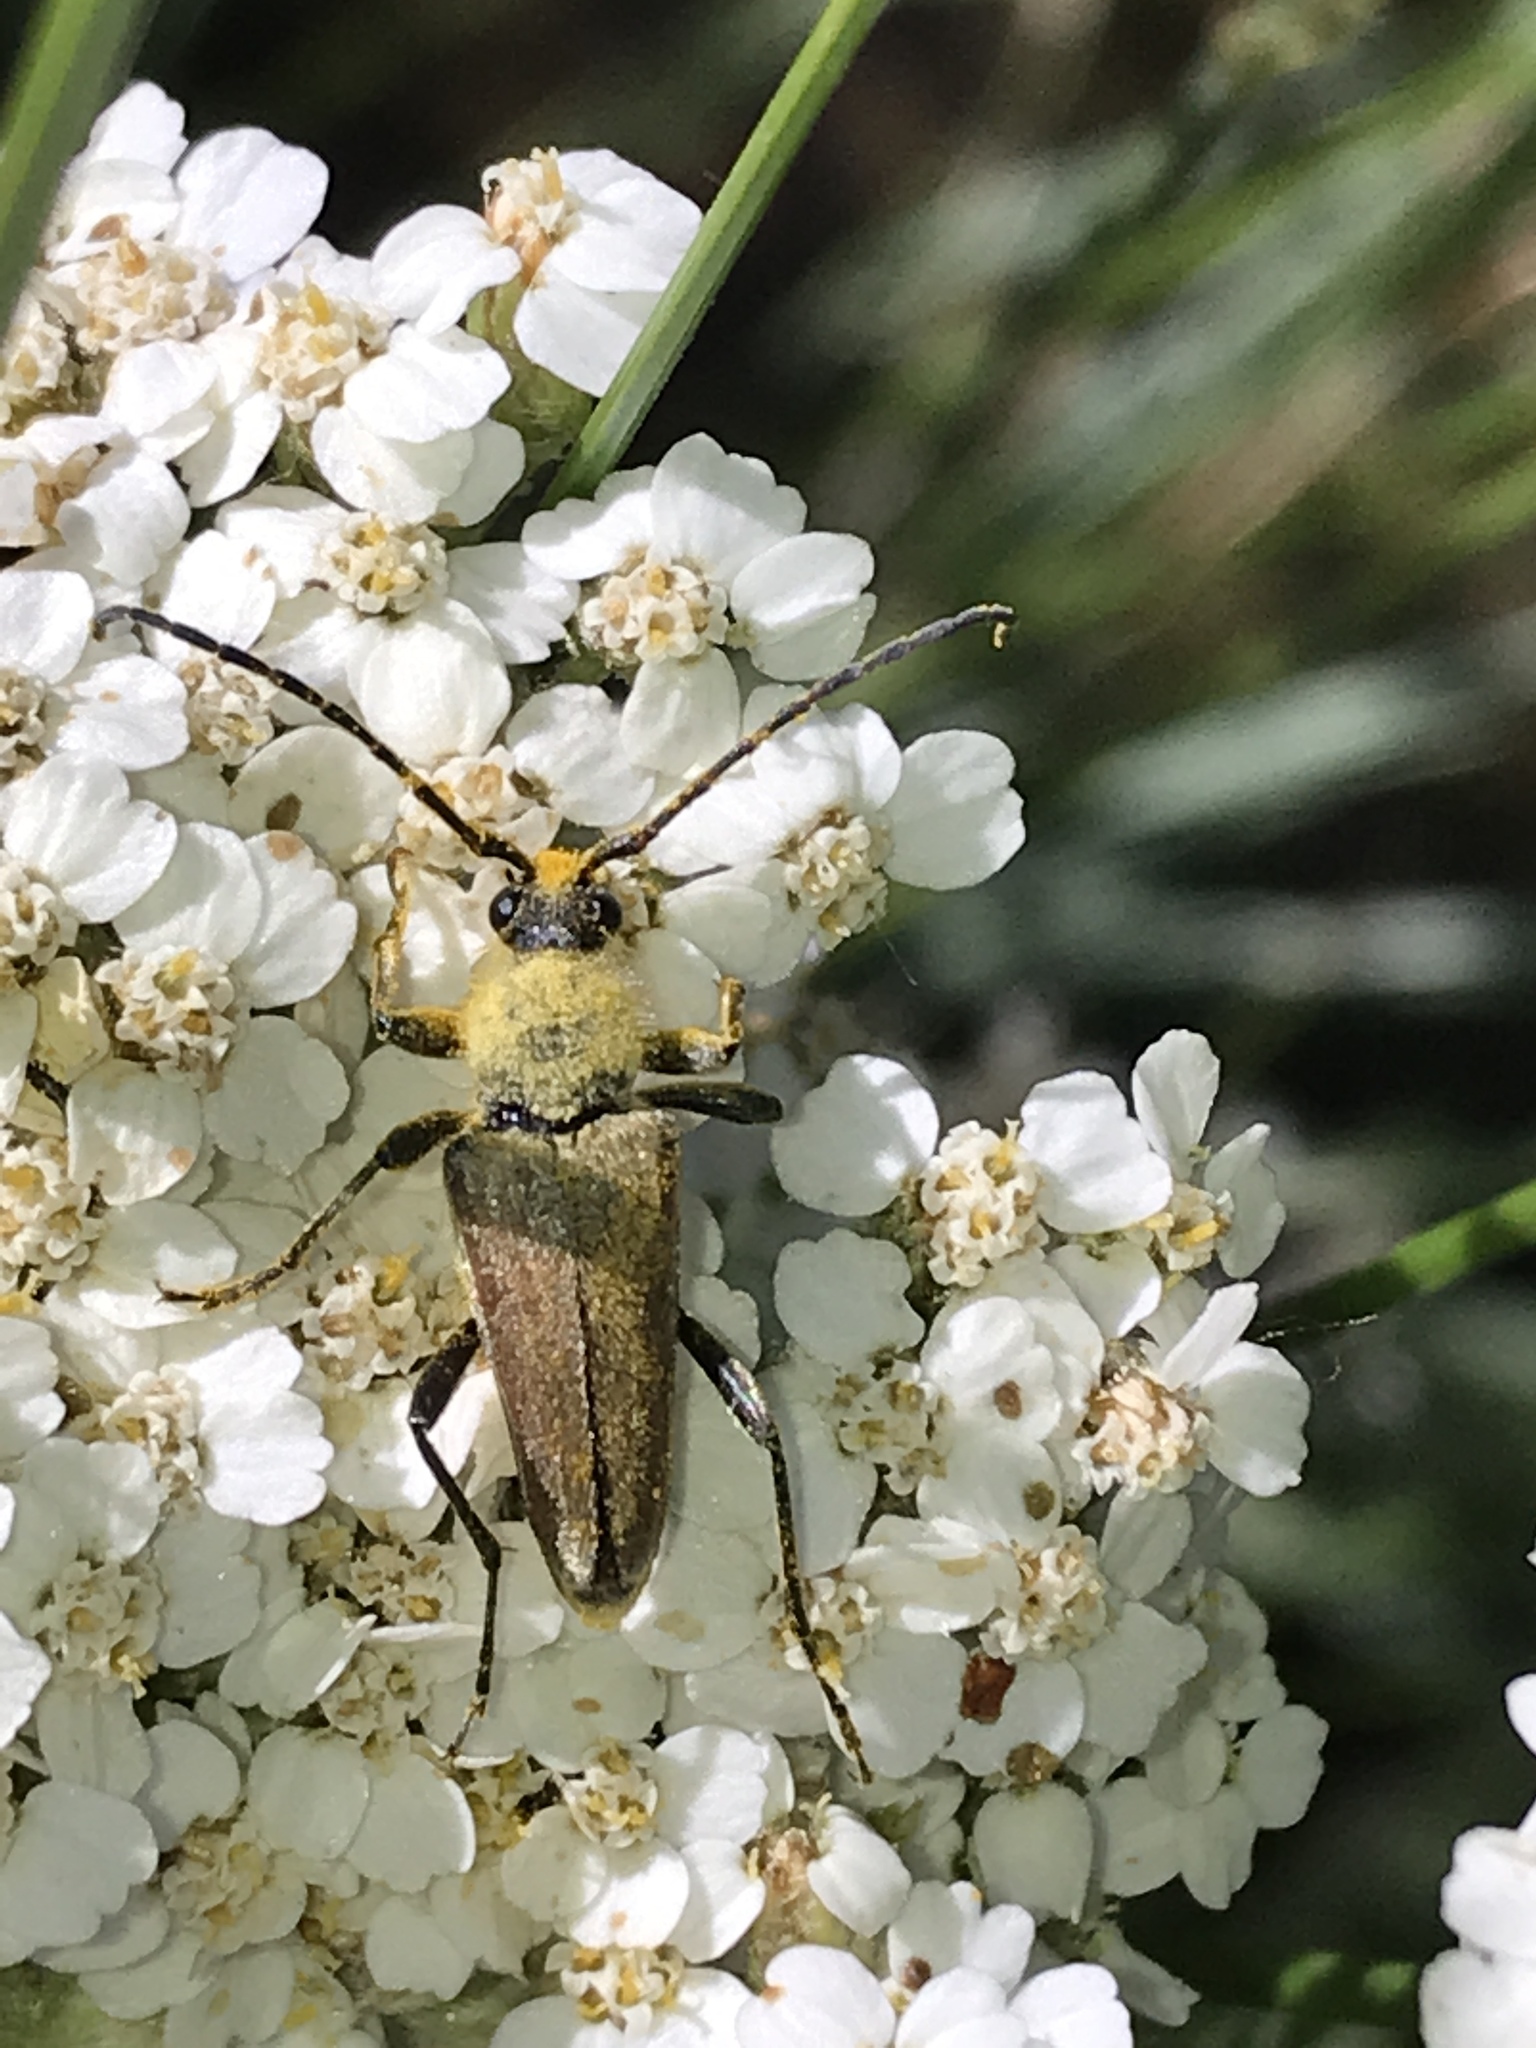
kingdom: Animalia
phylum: Arthropoda
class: Insecta
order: Coleoptera
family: Cerambycidae
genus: Cosmosalia
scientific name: Cosmosalia chrysocoma
